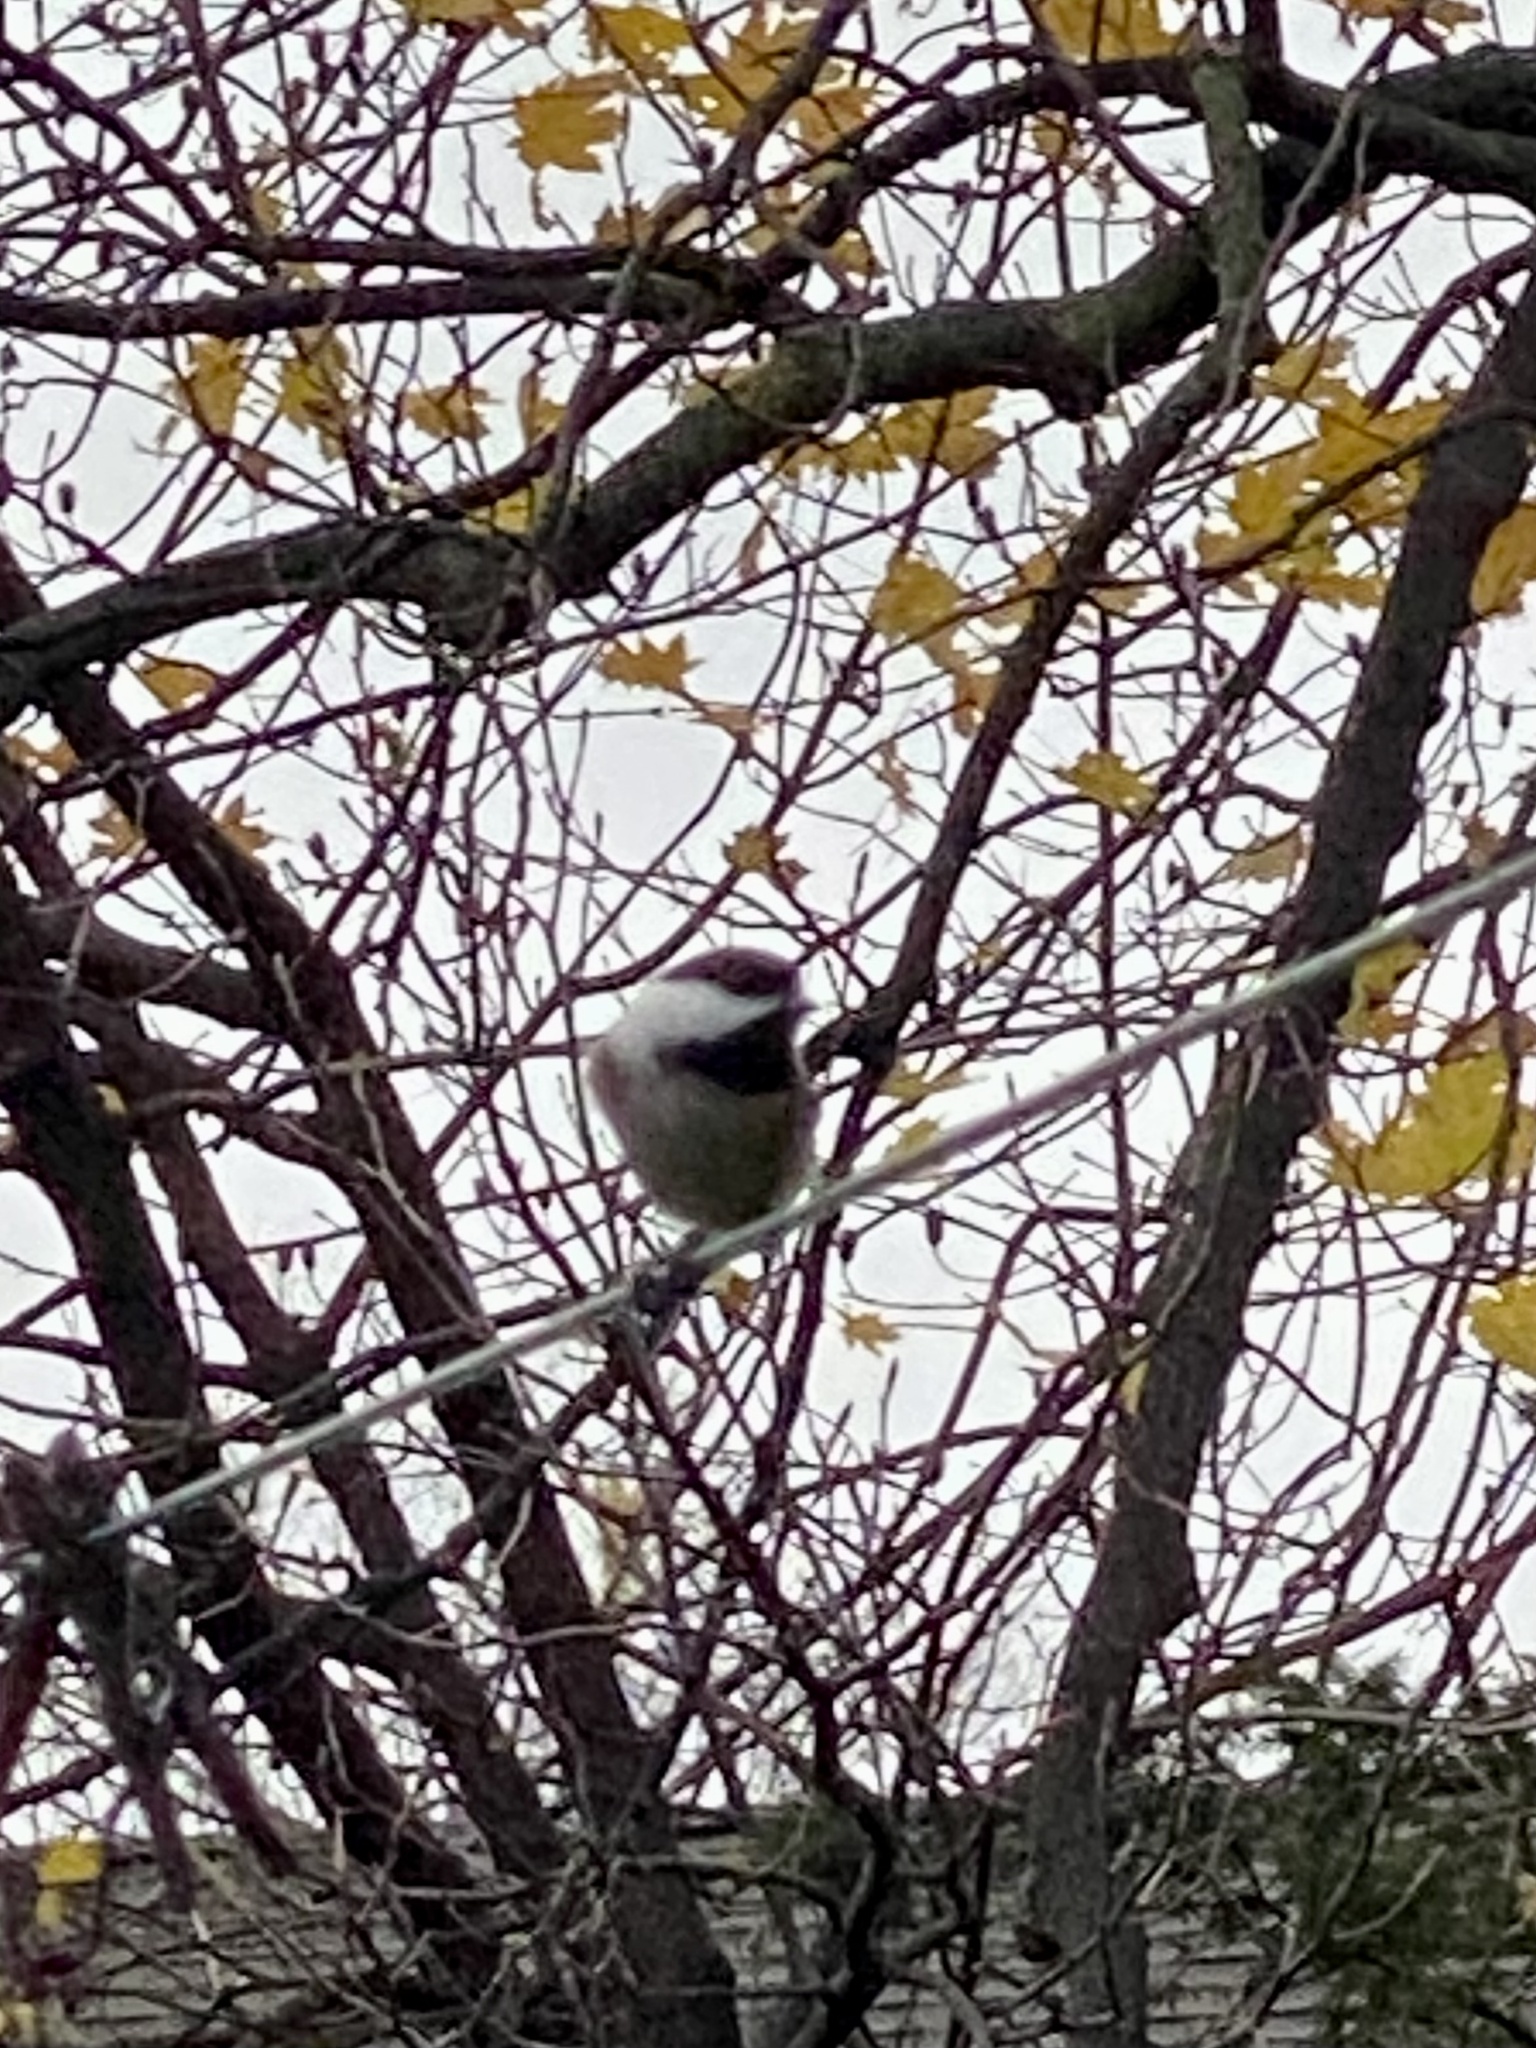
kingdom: Animalia
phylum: Chordata
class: Aves
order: Passeriformes
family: Paridae
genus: Poecile
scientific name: Poecile atricapillus
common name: Black-capped chickadee
